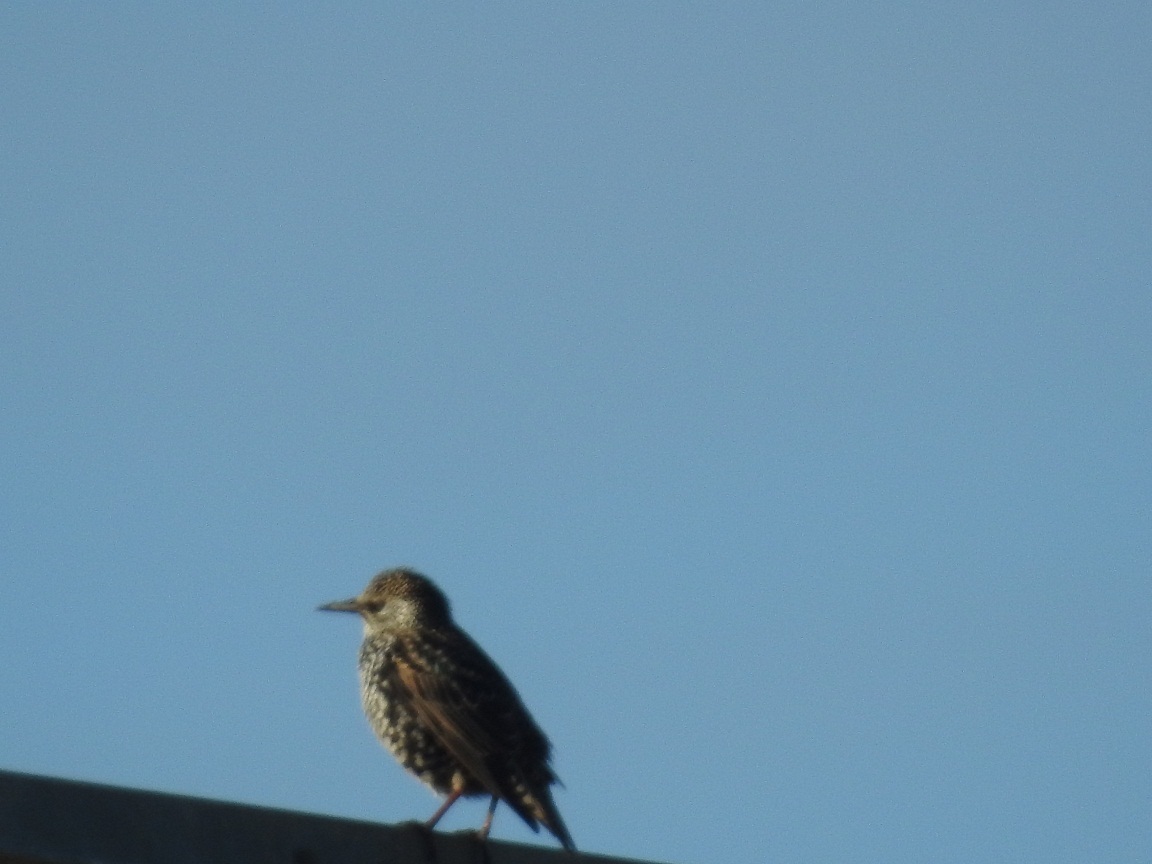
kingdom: Animalia
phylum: Chordata
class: Aves
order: Passeriformes
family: Sturnidae
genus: Sturnus
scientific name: Sturnus vulgaris
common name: Common starling
